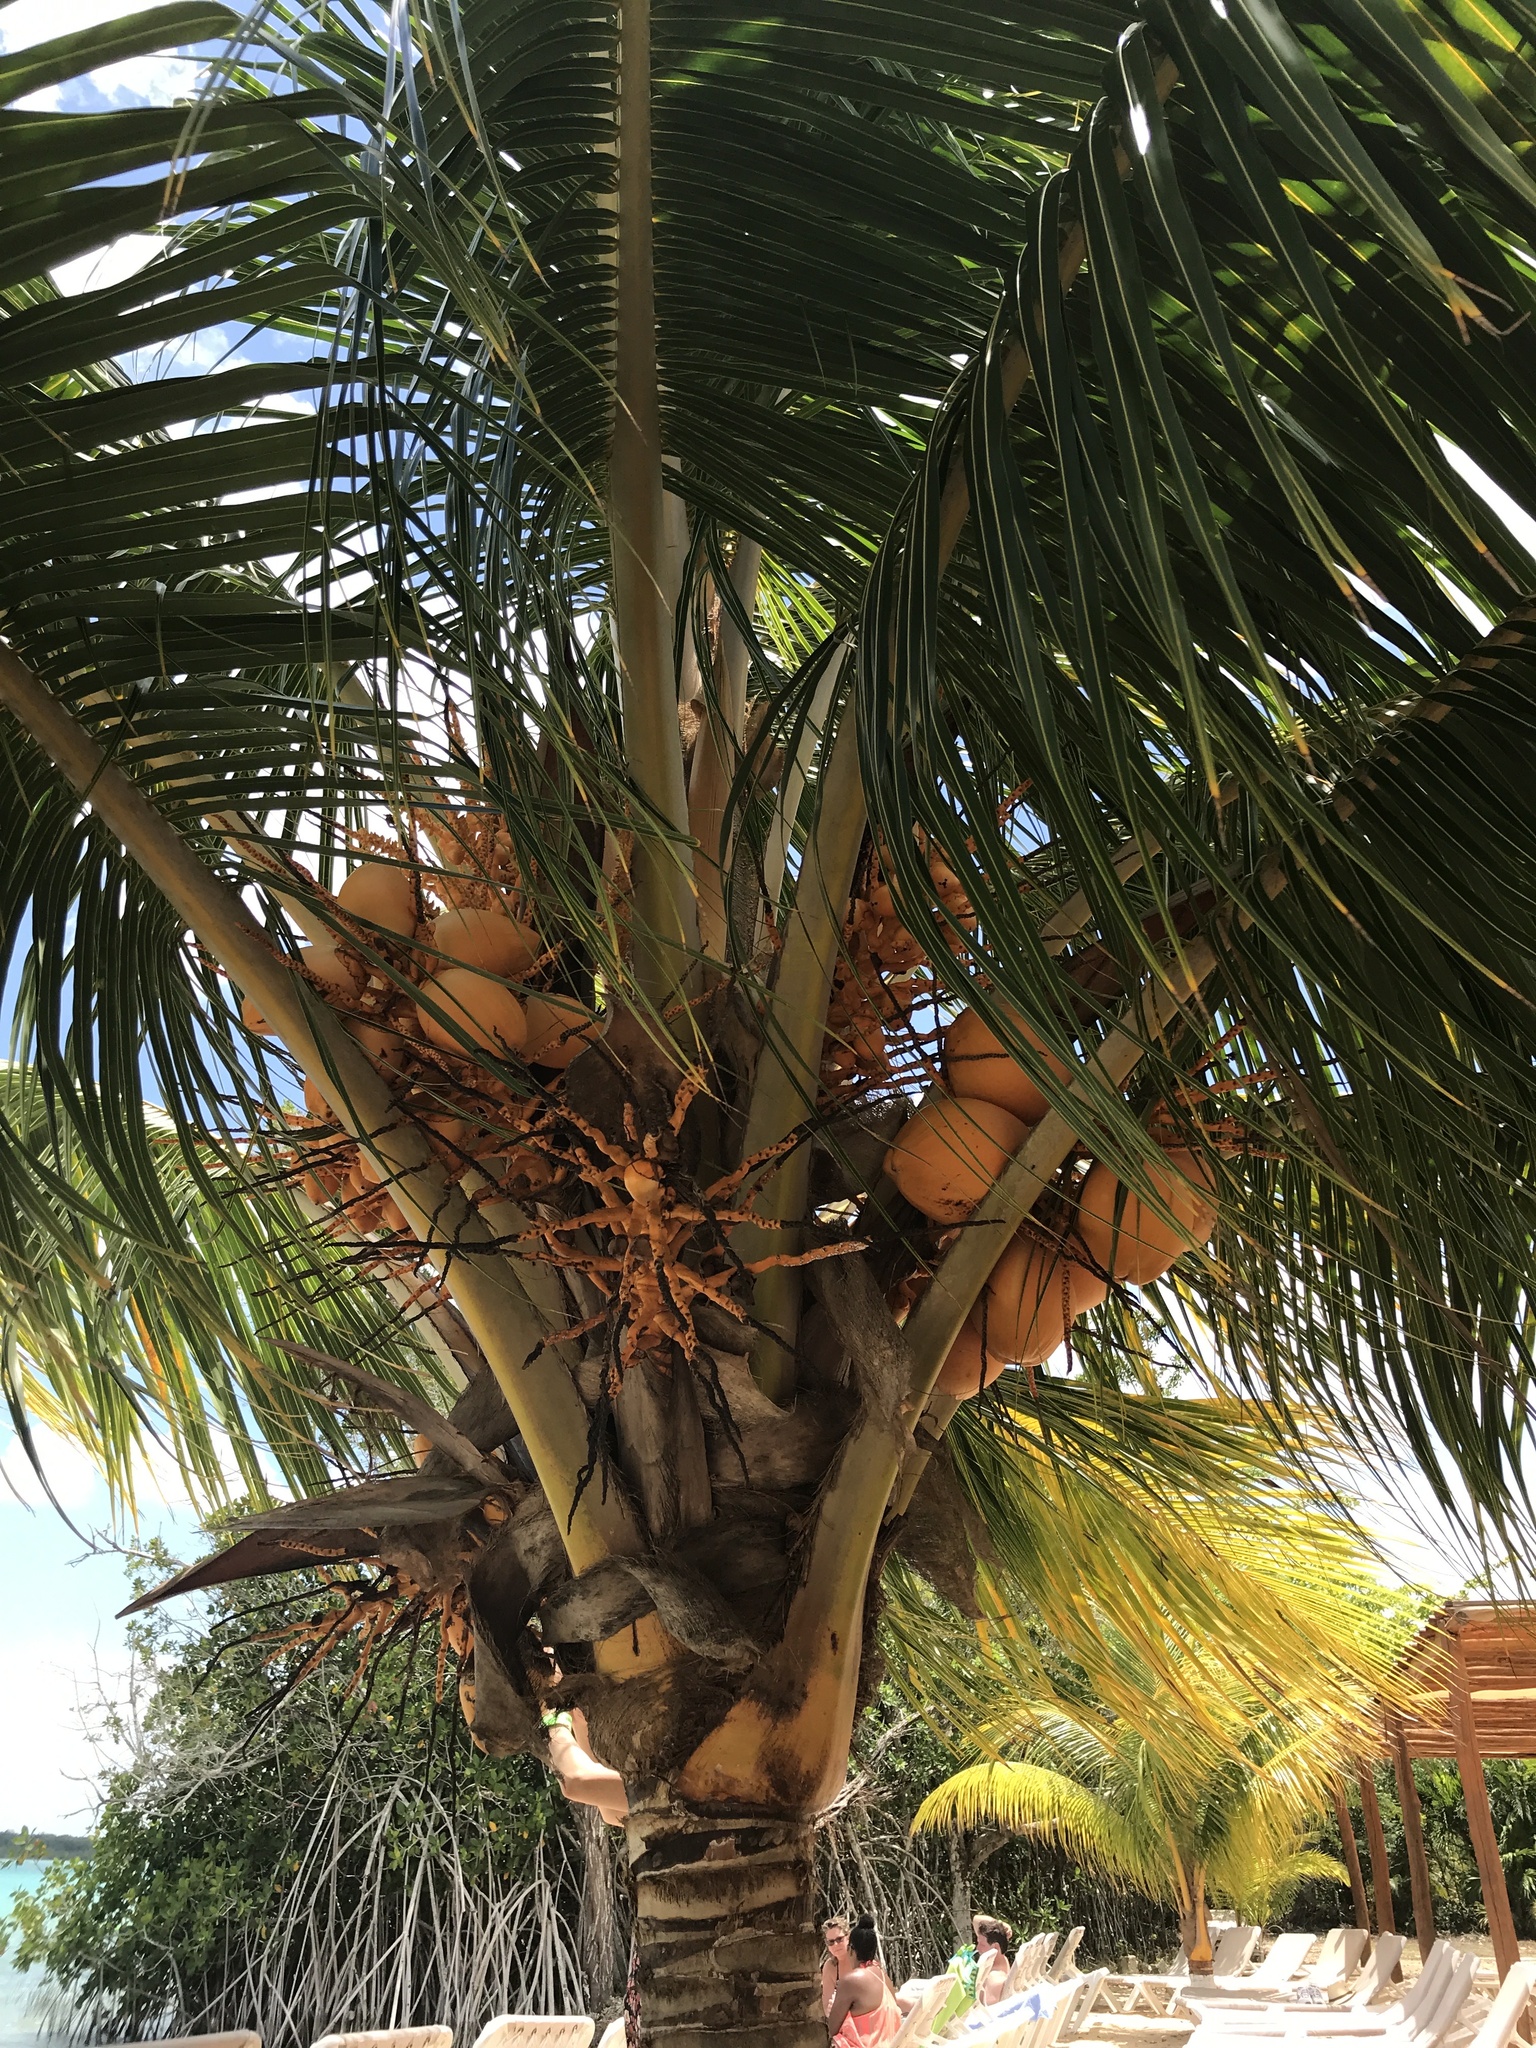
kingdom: Plantae
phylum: Tracheophyta
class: Liliopsida
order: Arecales
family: Arecaceae
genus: Cocos
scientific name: Cocos nucifera
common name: Coconut palm
